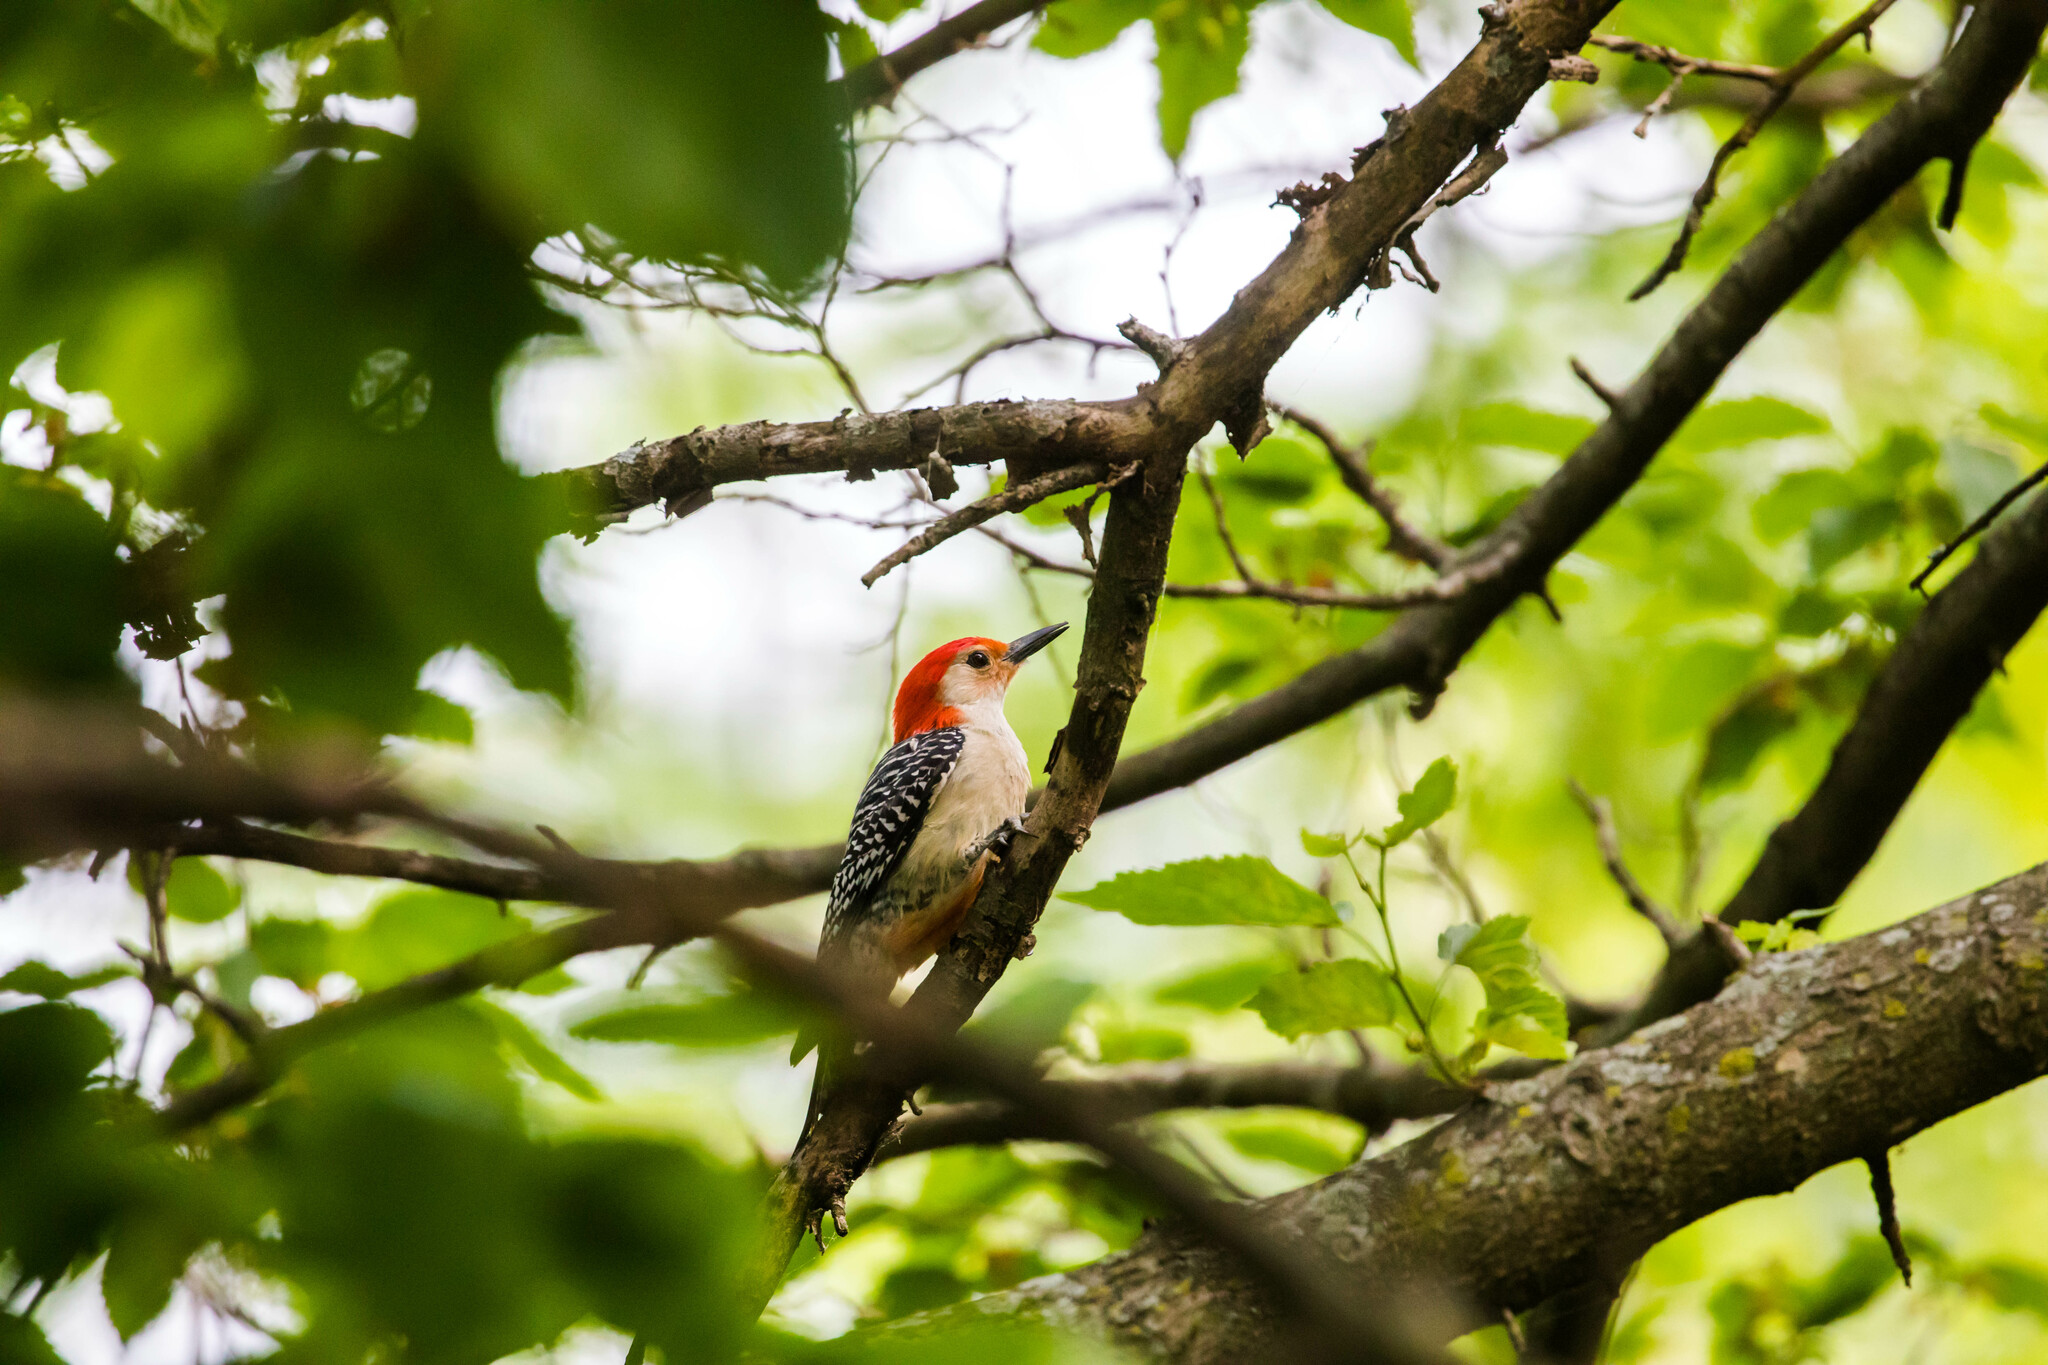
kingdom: Animalia
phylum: Chordata
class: Aves
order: Piciformes
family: Picidae
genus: Melanerpes
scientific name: Melanerpes carolinus
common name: Red-bellied woodpecker
